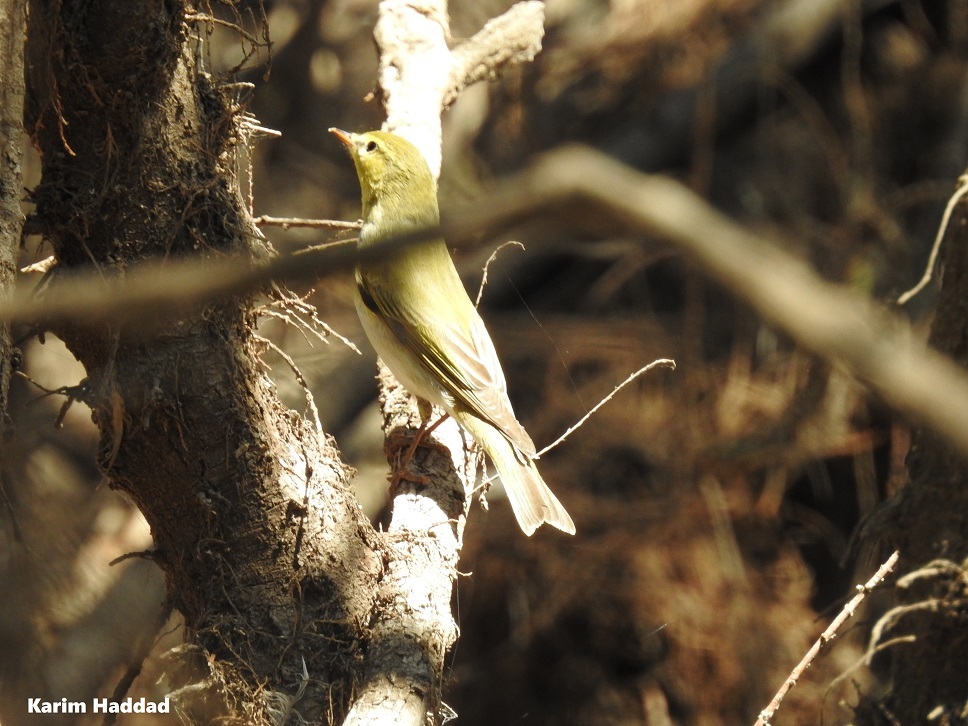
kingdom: Animalia
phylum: Chordata
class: Aves
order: Passeriformes
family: Phylloscopidae
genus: Phylloscopus
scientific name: Phylloscopus sibillatrix
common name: Wood warbler
